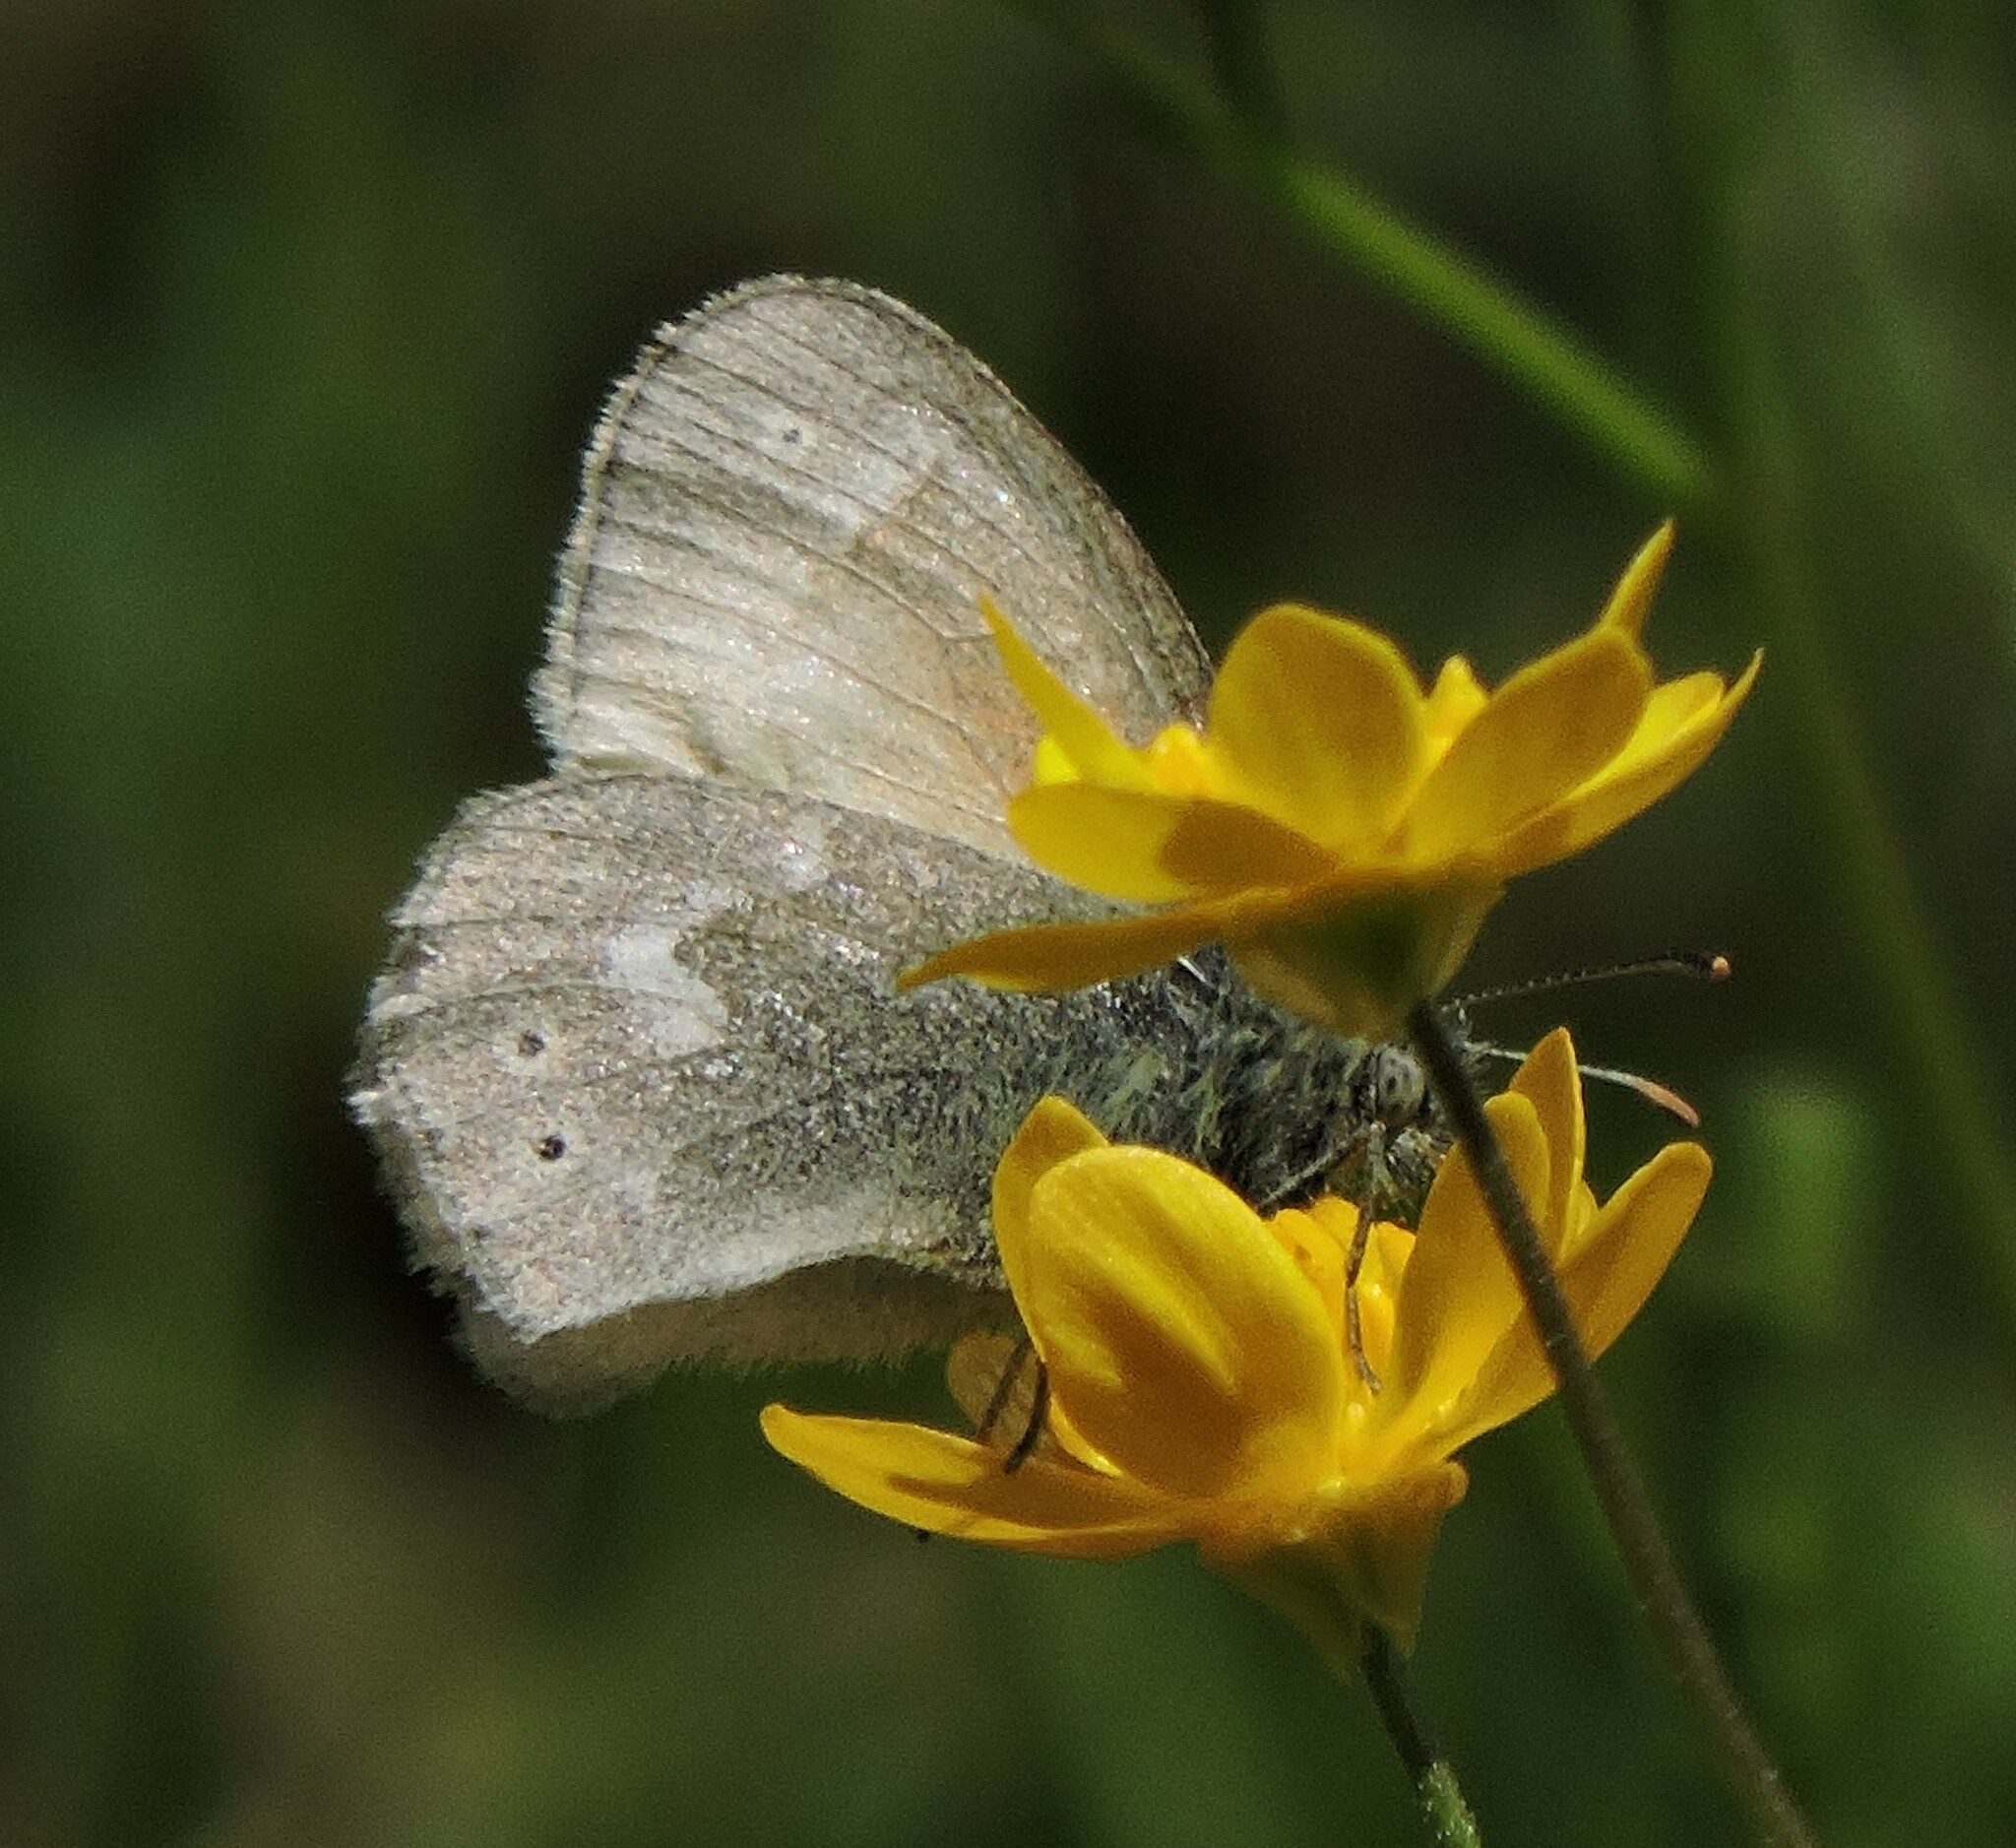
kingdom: Animalia
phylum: Arthropoda
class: Insecta
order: Lepidoptera
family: Nymphalidae
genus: Coenonympha
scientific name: Coenonympha california
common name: Common ringlet
